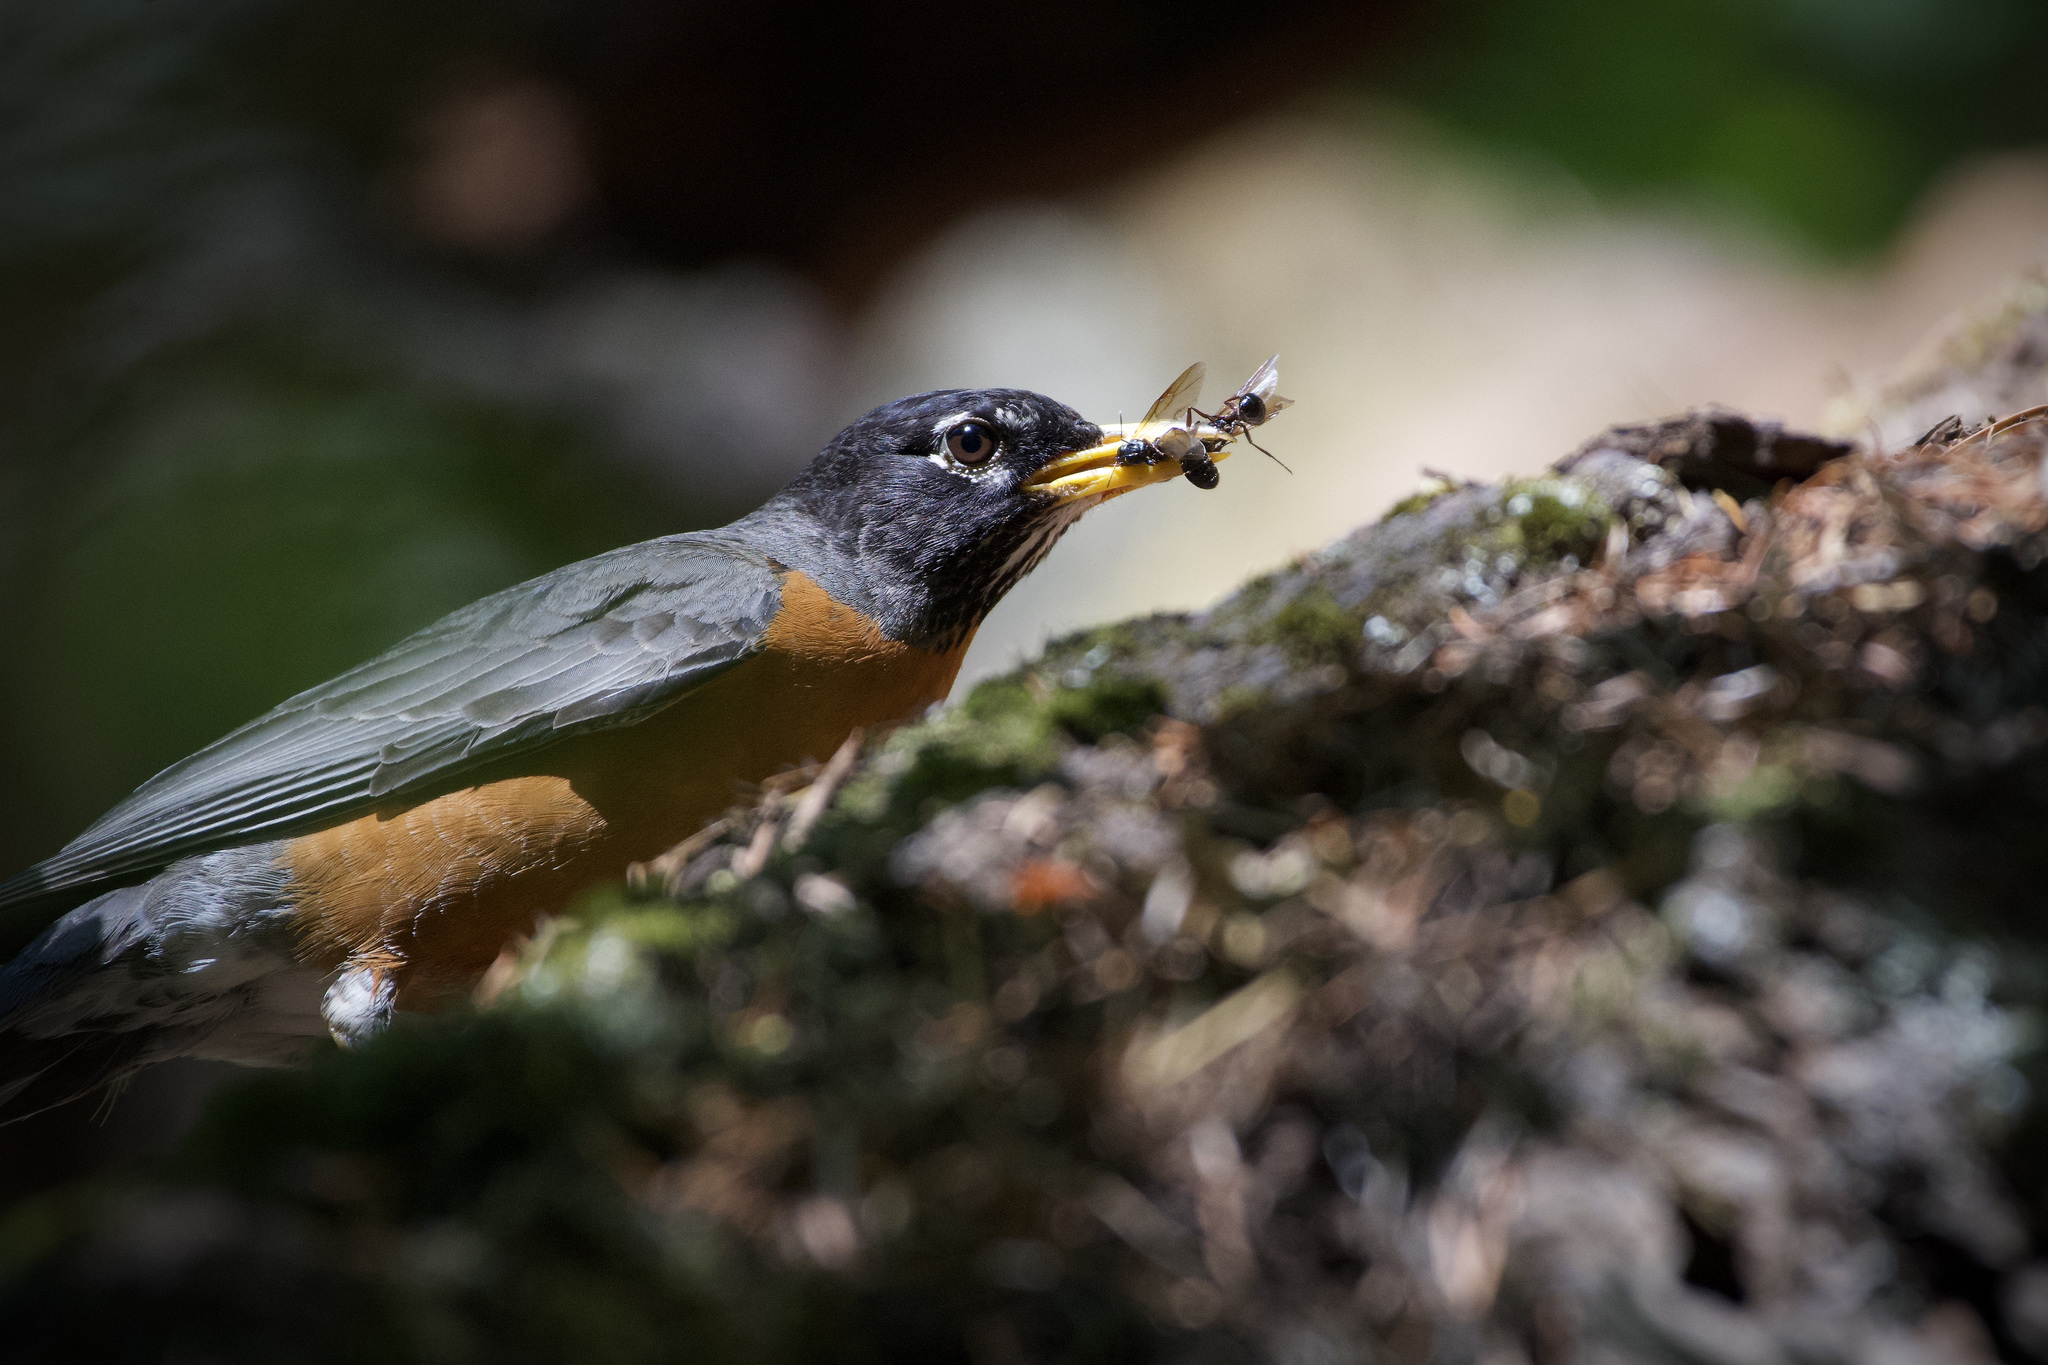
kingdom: Animalia
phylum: Chordata
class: Aves
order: Passeriformes
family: Turdidae
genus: Turdus
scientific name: Turdus migratorius
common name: American robin
